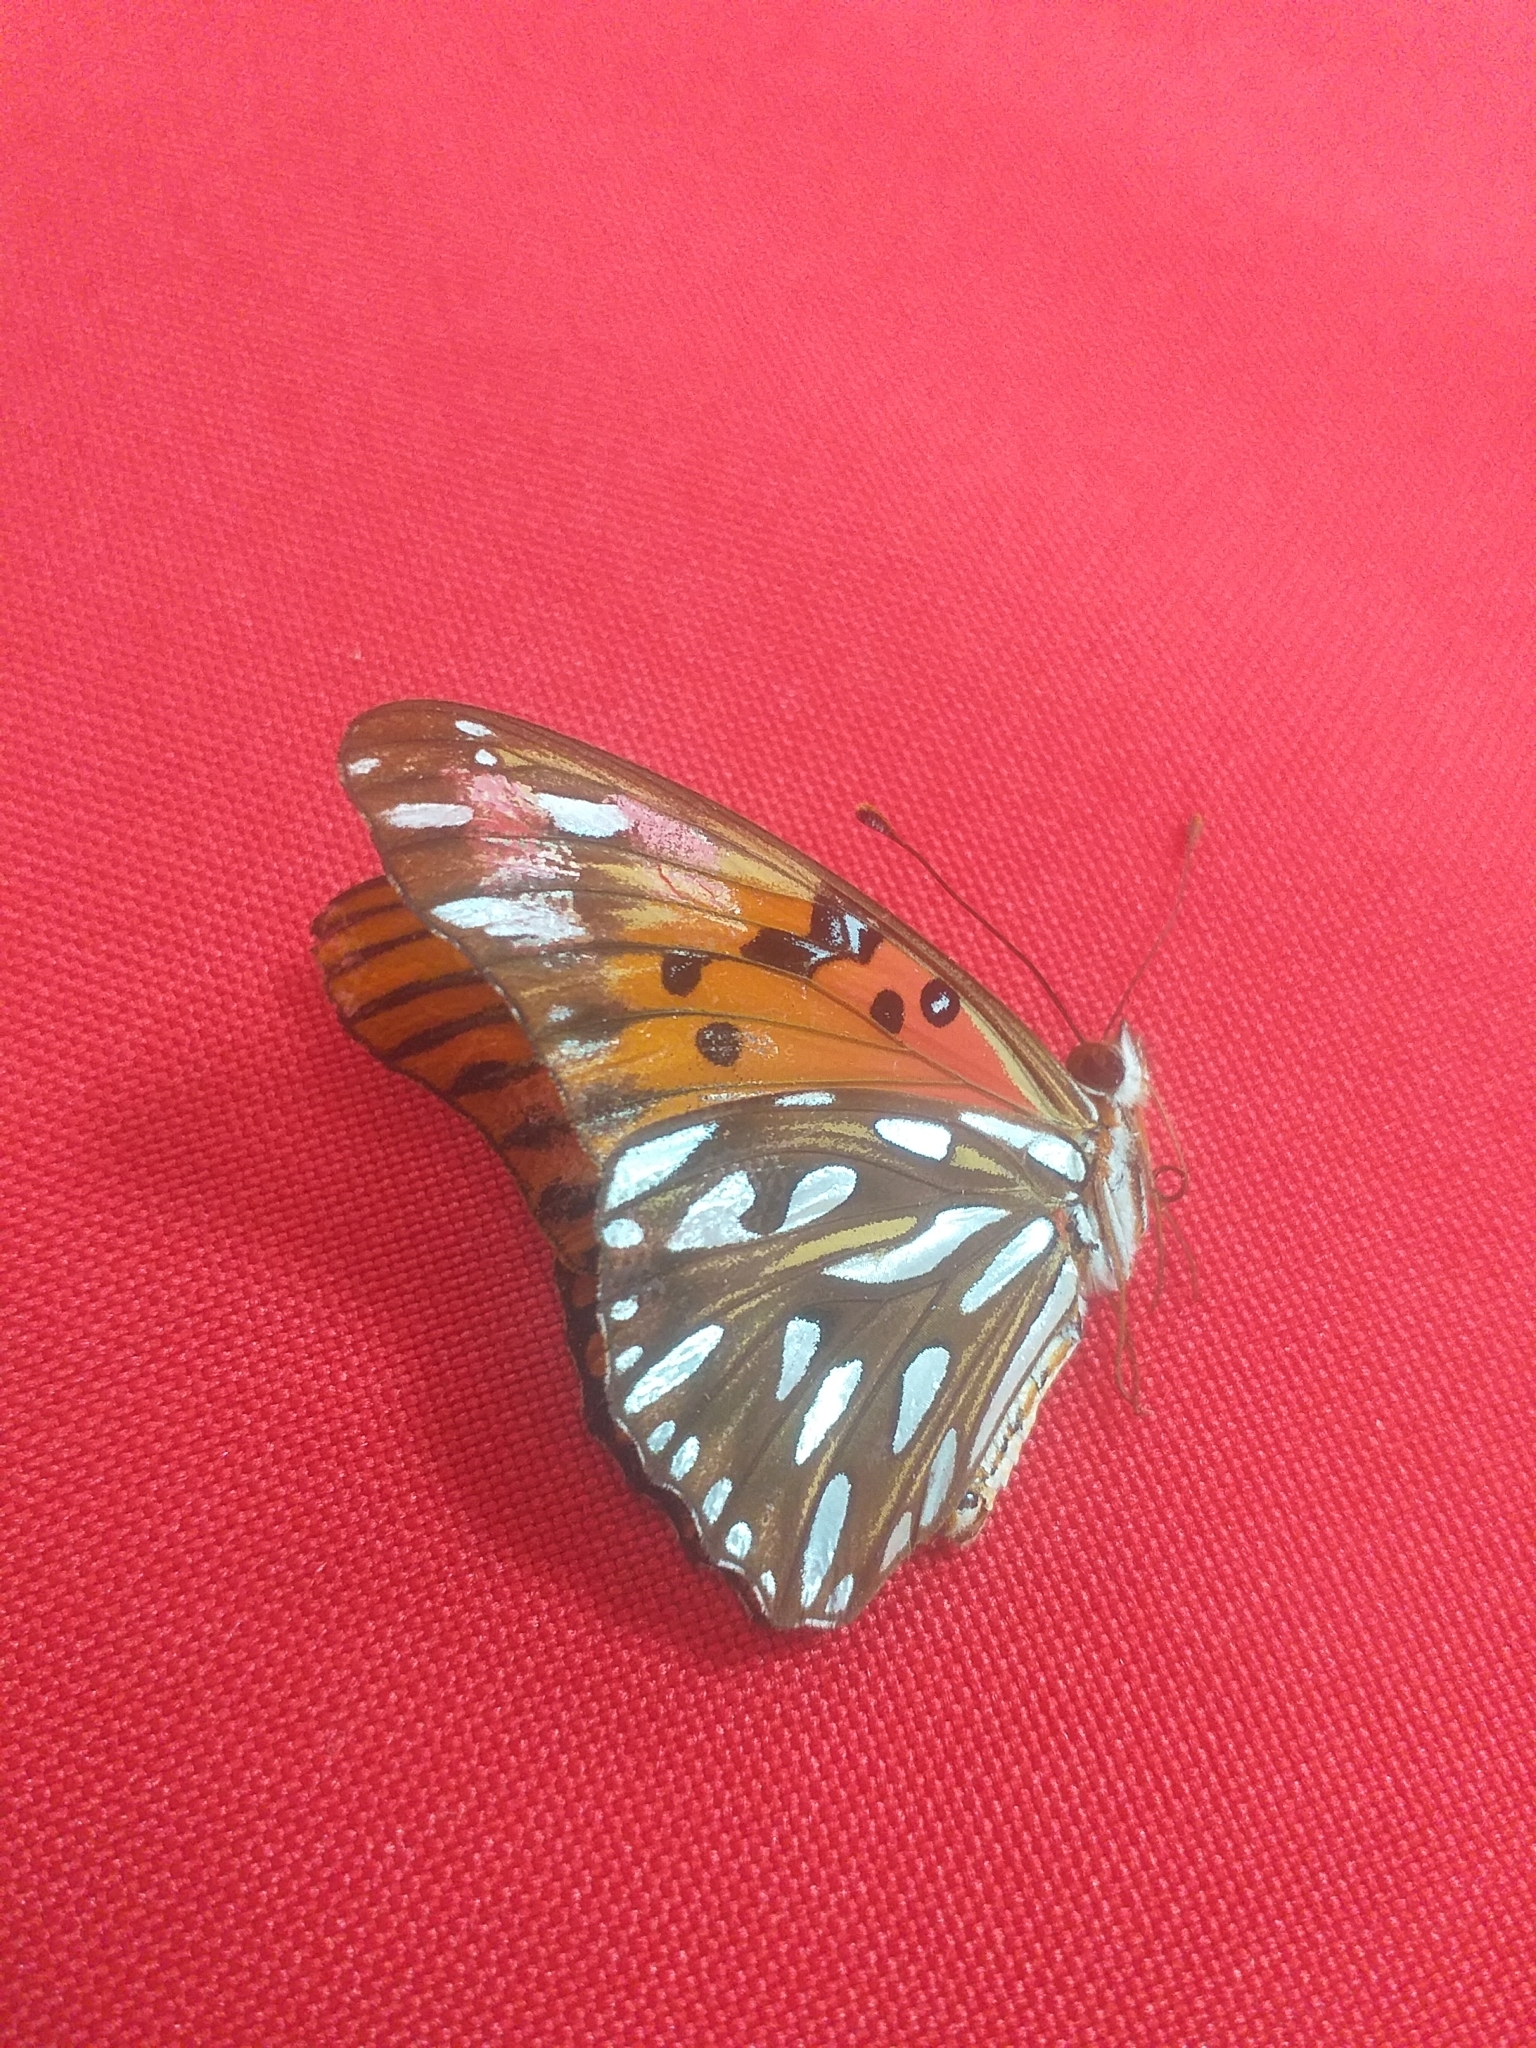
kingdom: Animalia
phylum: Arthropoda
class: Insecta
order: Lepidoptera
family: Nymphalidae
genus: Dione
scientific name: Dione vanillae
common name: Gulf fritillary
